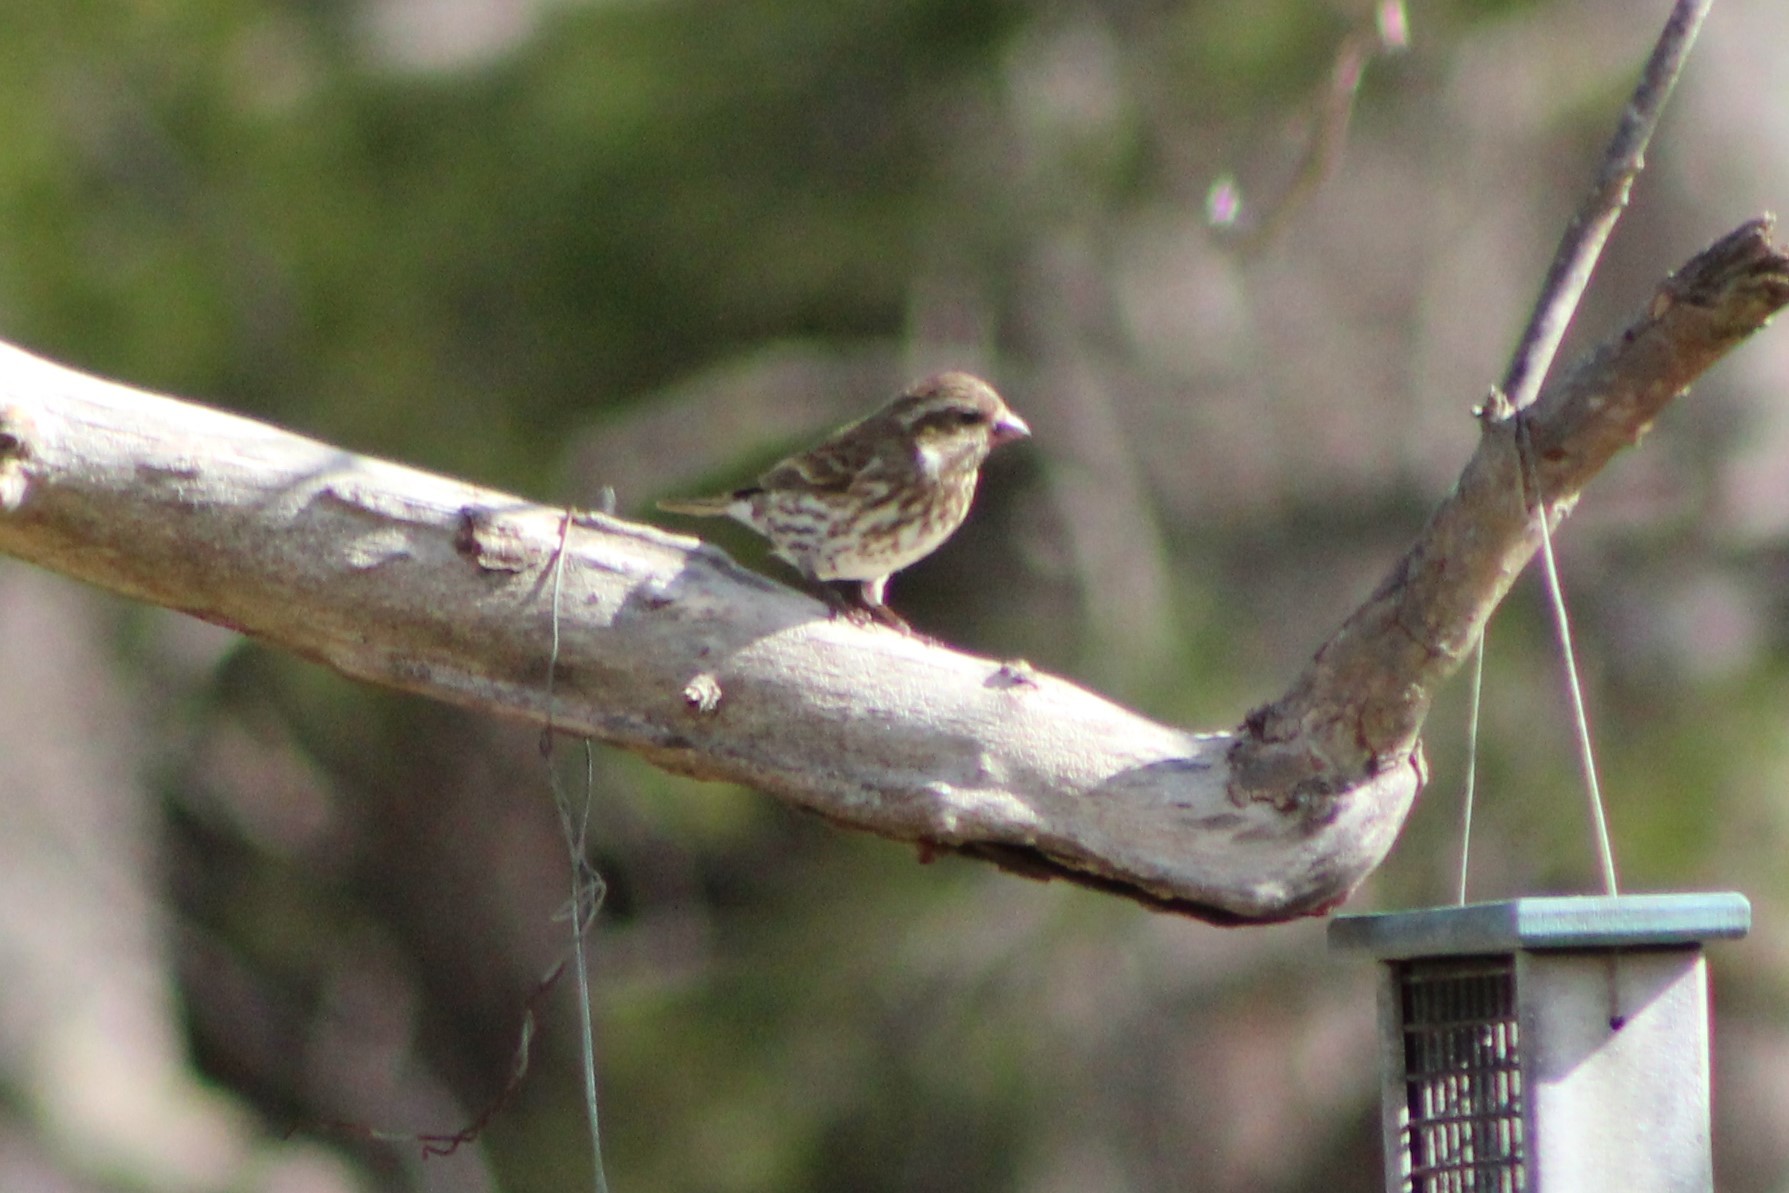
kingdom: Animalia
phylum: Chordata
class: Aves
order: Passeriformes
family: Fringillidae
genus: Haemorhous
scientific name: Haemorhous purpureus
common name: Purple finch
